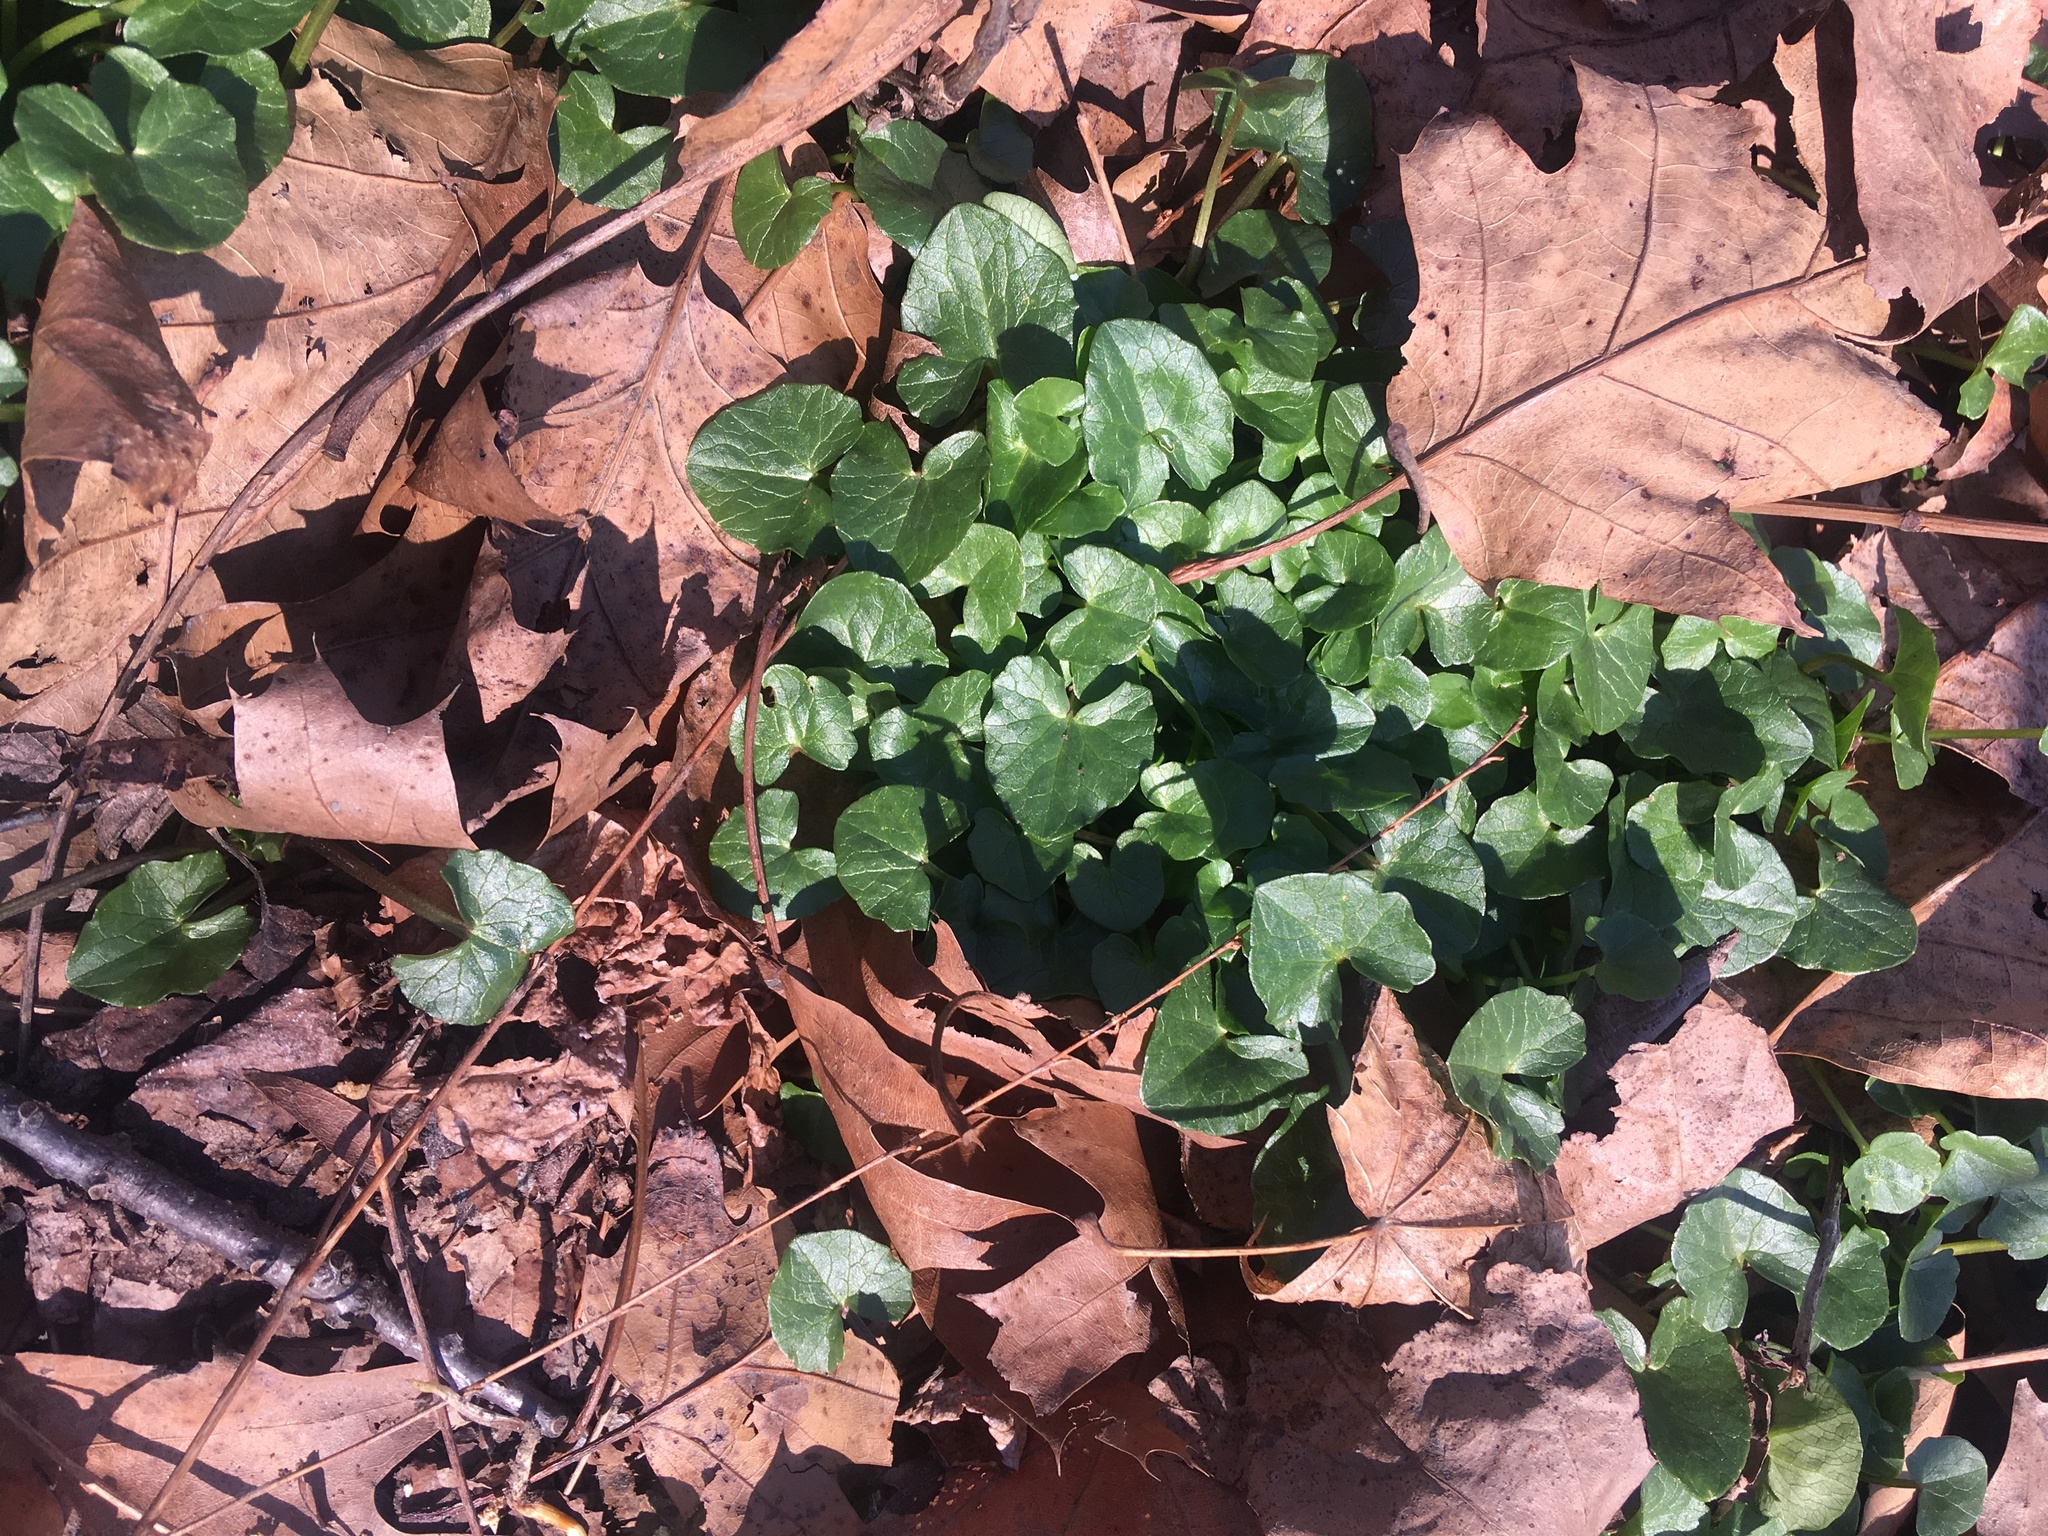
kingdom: Plantae
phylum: Tracheophyta
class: Magnoliopsida
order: Ranunculales
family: Ranunculaceae
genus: Ficaria
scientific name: Ficaria verna
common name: Lesser celandine
